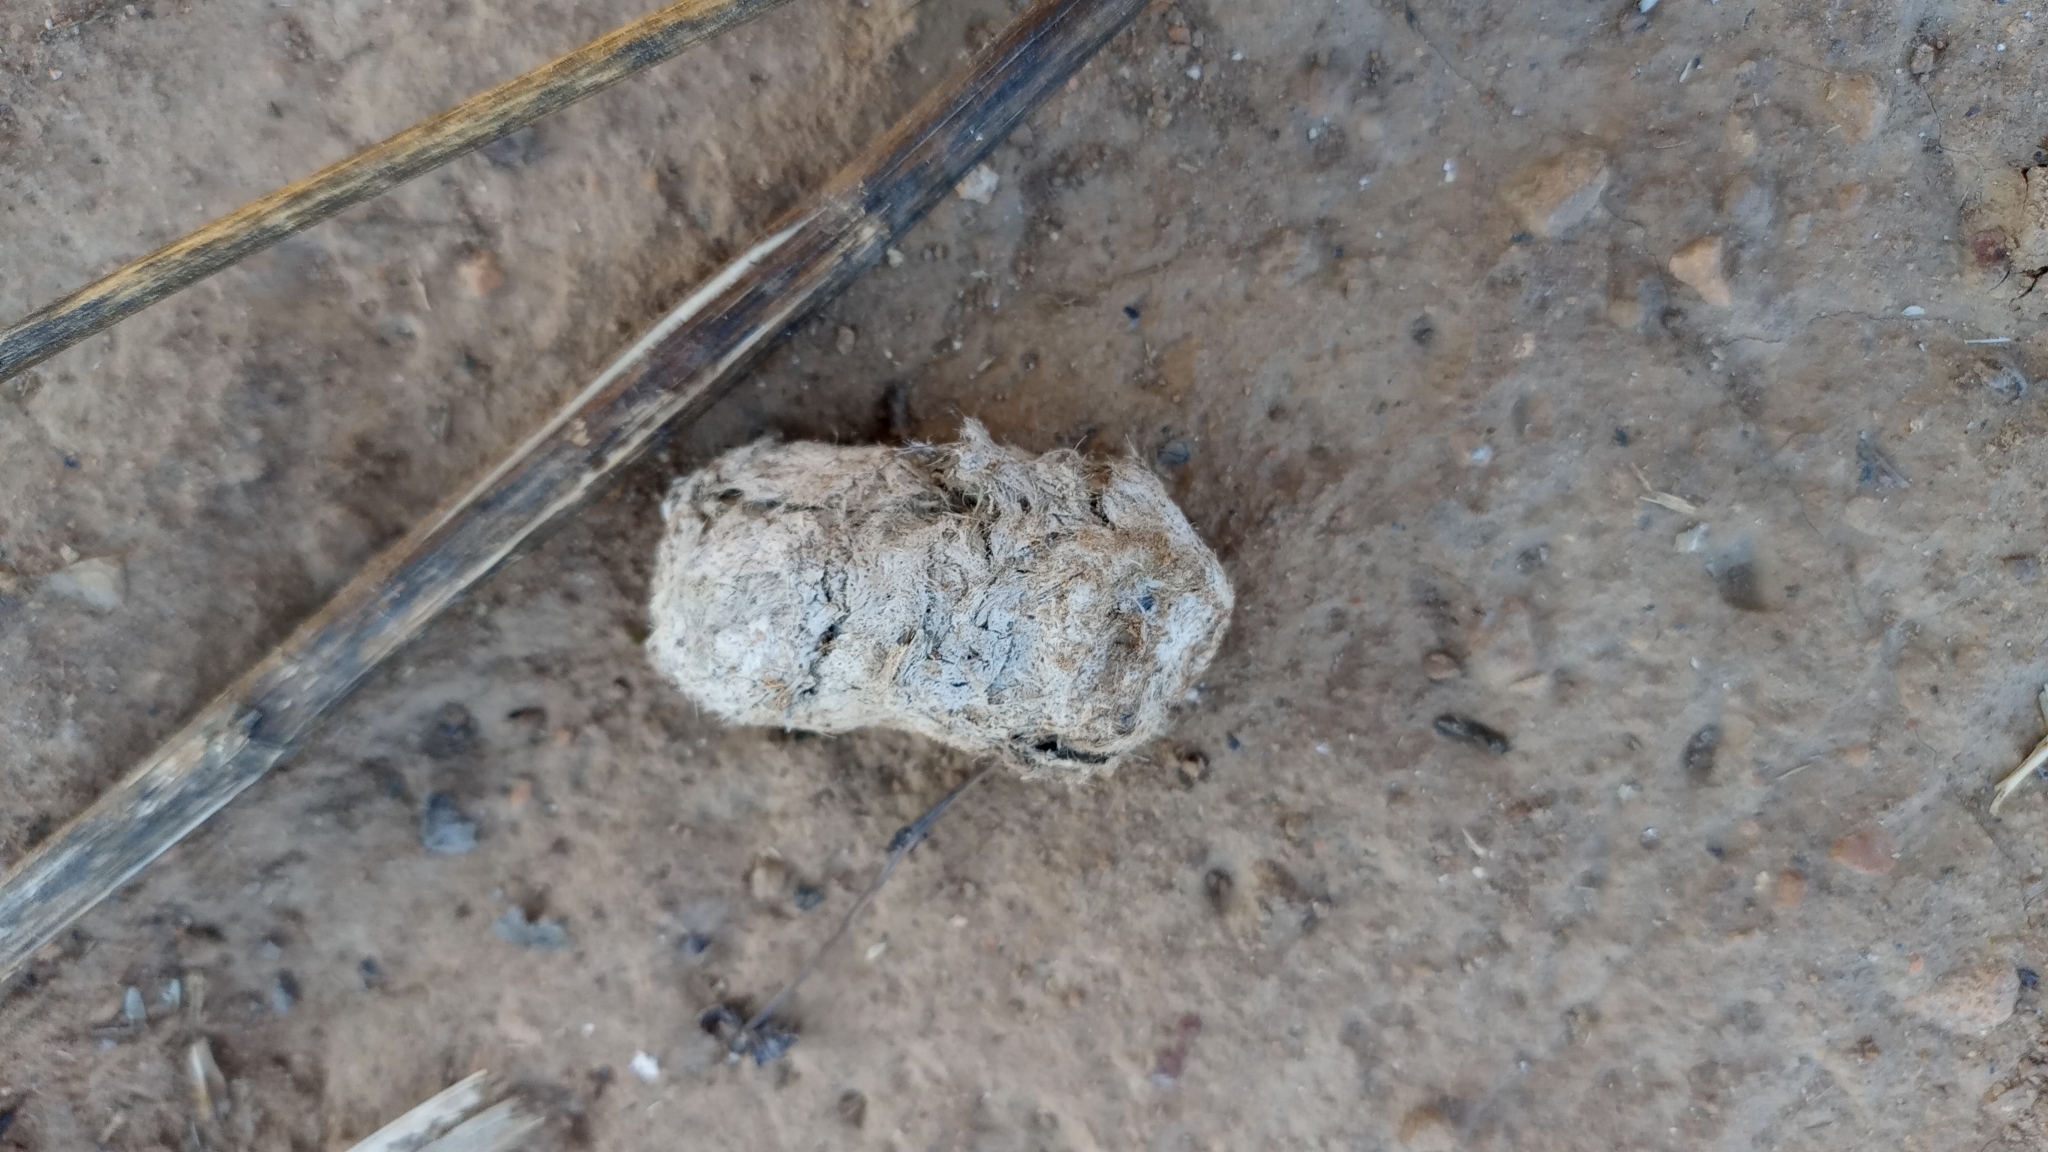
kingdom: Animalia
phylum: Chordata
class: Mammalia
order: Carnivora
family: Felidae
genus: Lynx
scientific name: Lynx rufus
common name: Bobcat
